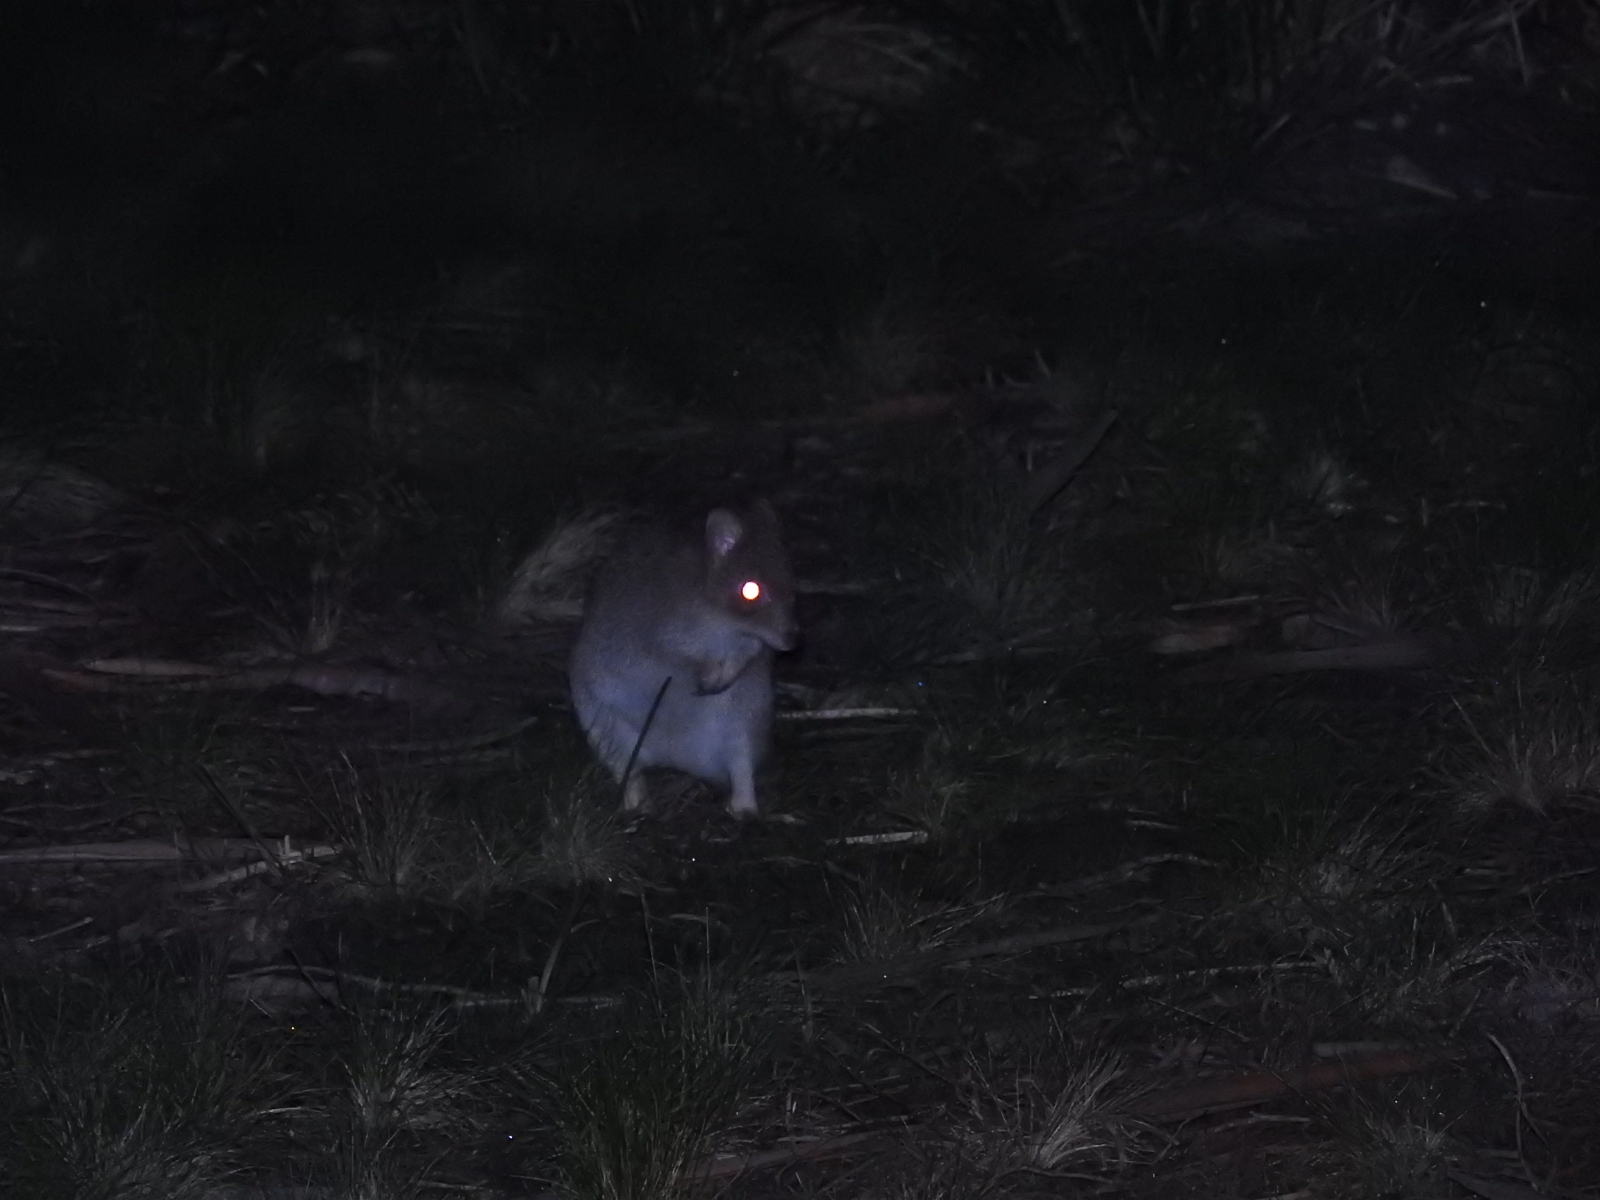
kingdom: Animalia
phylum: Chordata
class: Mammalia
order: Diprotodontia
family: Potoroidae
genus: Bettongia
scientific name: Bettongia gaimardi
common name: Eastern bettong
